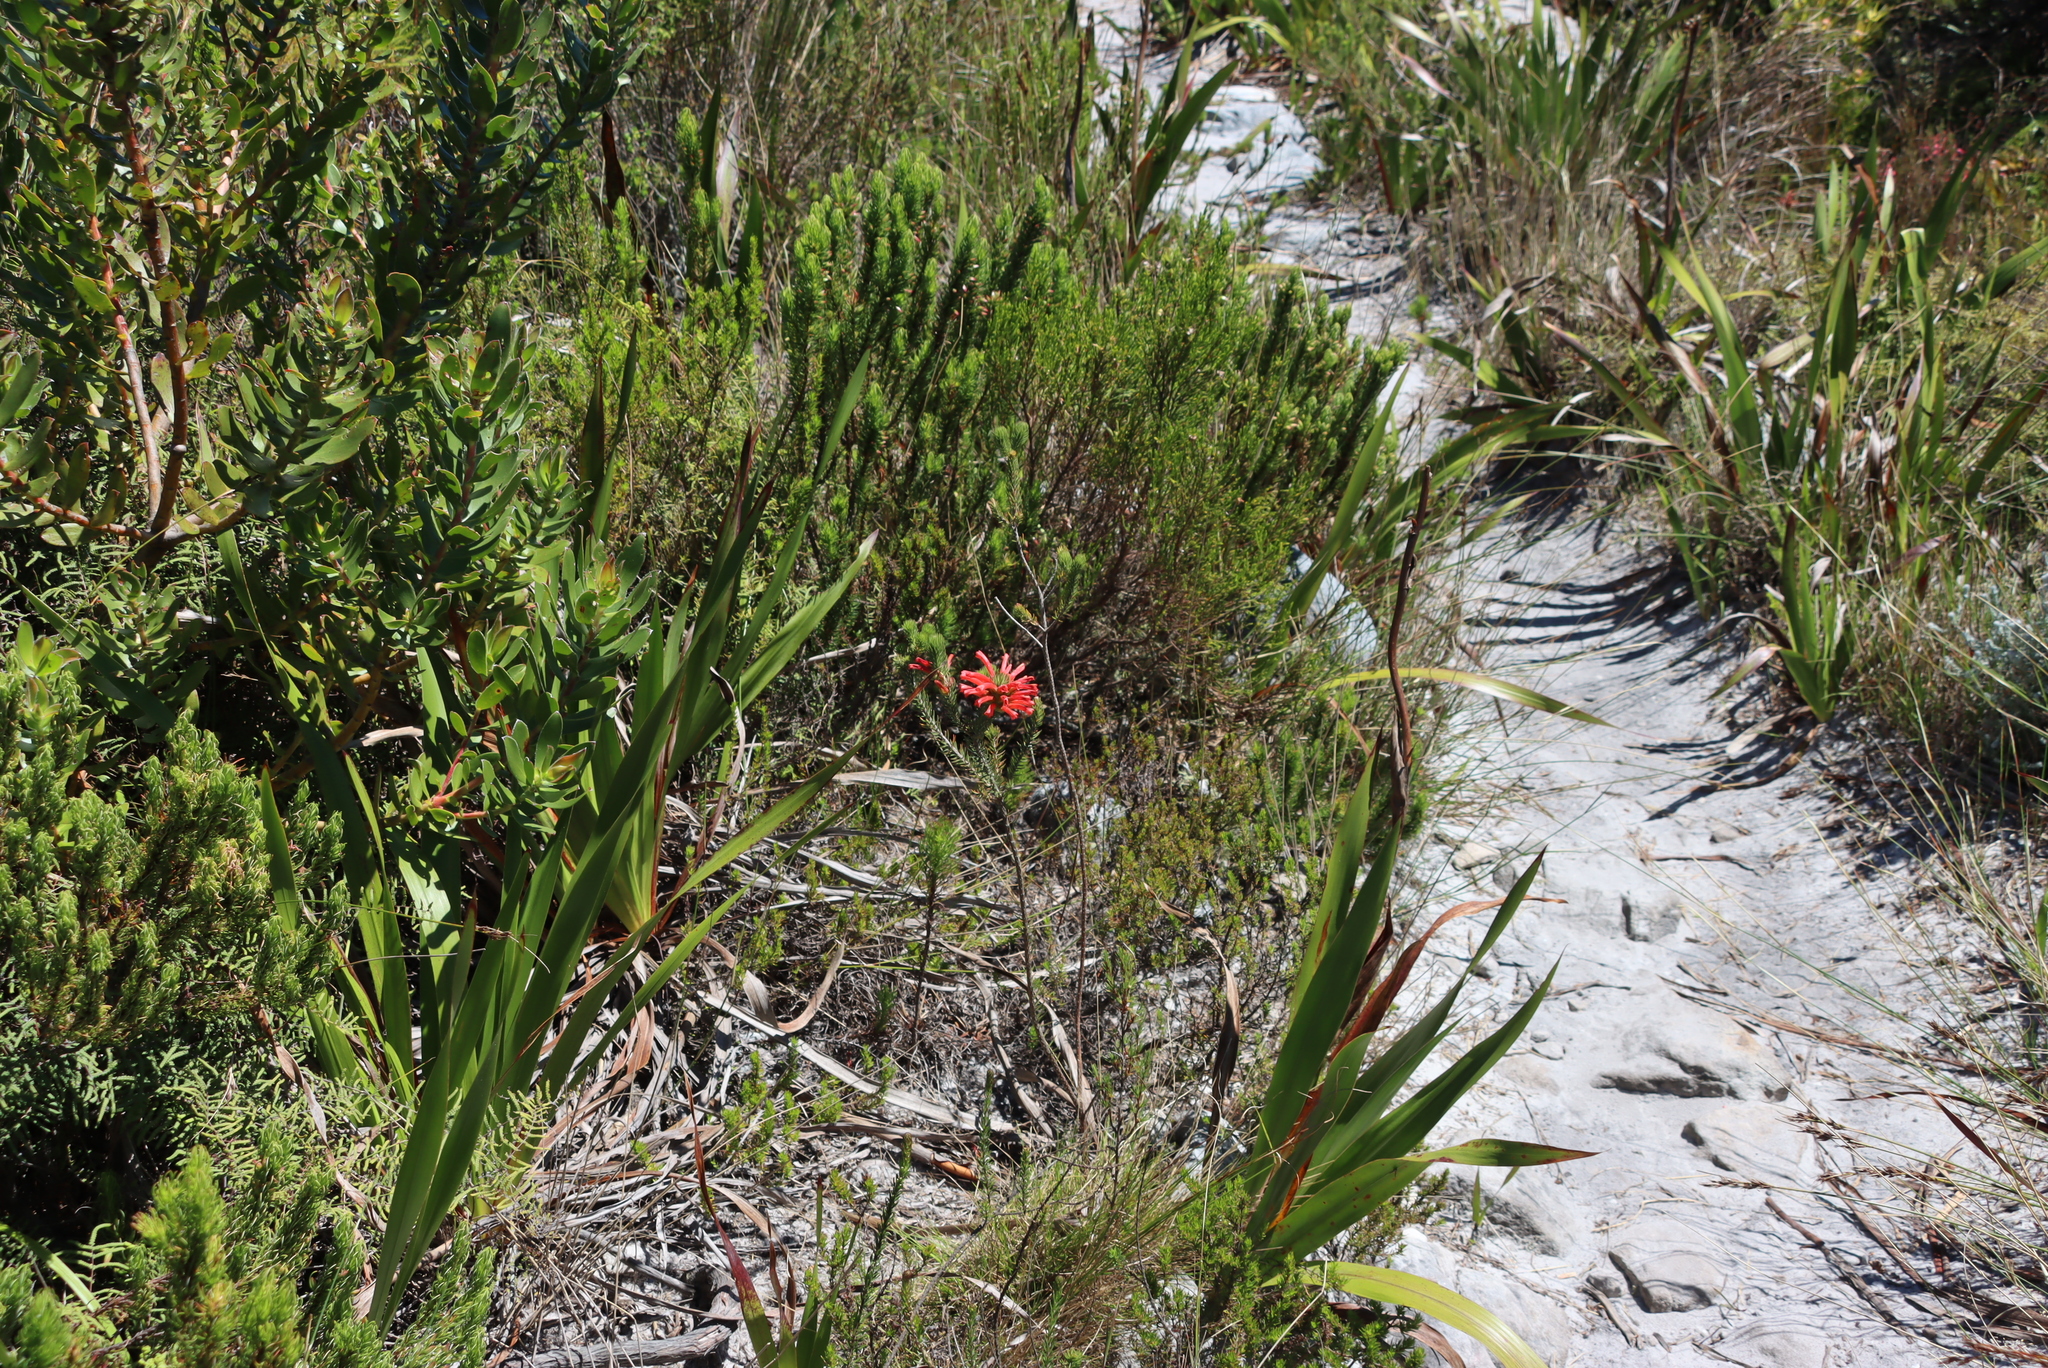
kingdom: Plantae
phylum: Tracheophyta
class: Magnoliopsida
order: Ericales
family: Ericaceae
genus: Erica
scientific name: Erica abietina
